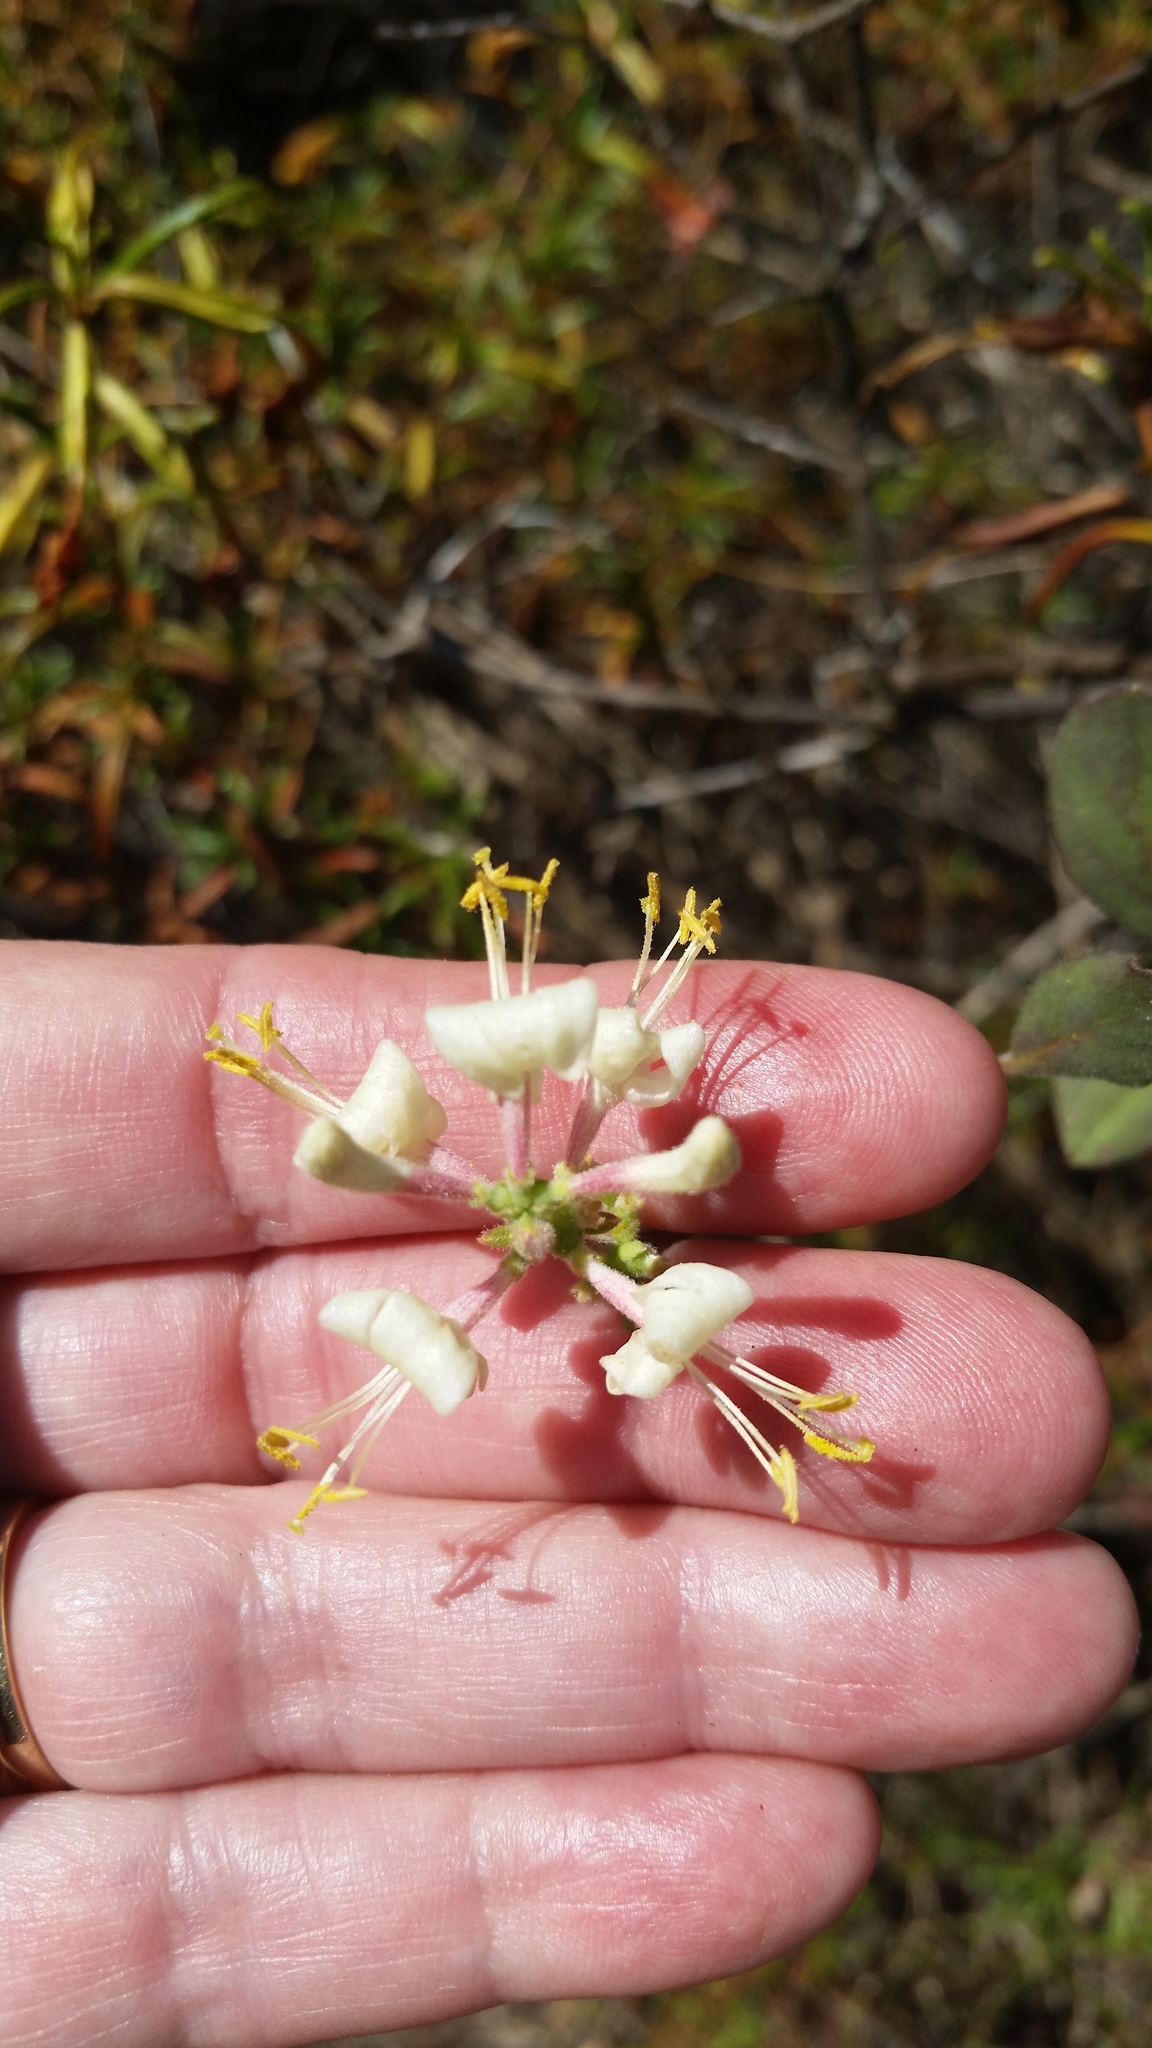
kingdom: Plantae
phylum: Tracheophyta
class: Magnoliopsida
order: Dipsacales
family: Caprifoliaceae
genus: Lonicera
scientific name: Lonicera subspicata
